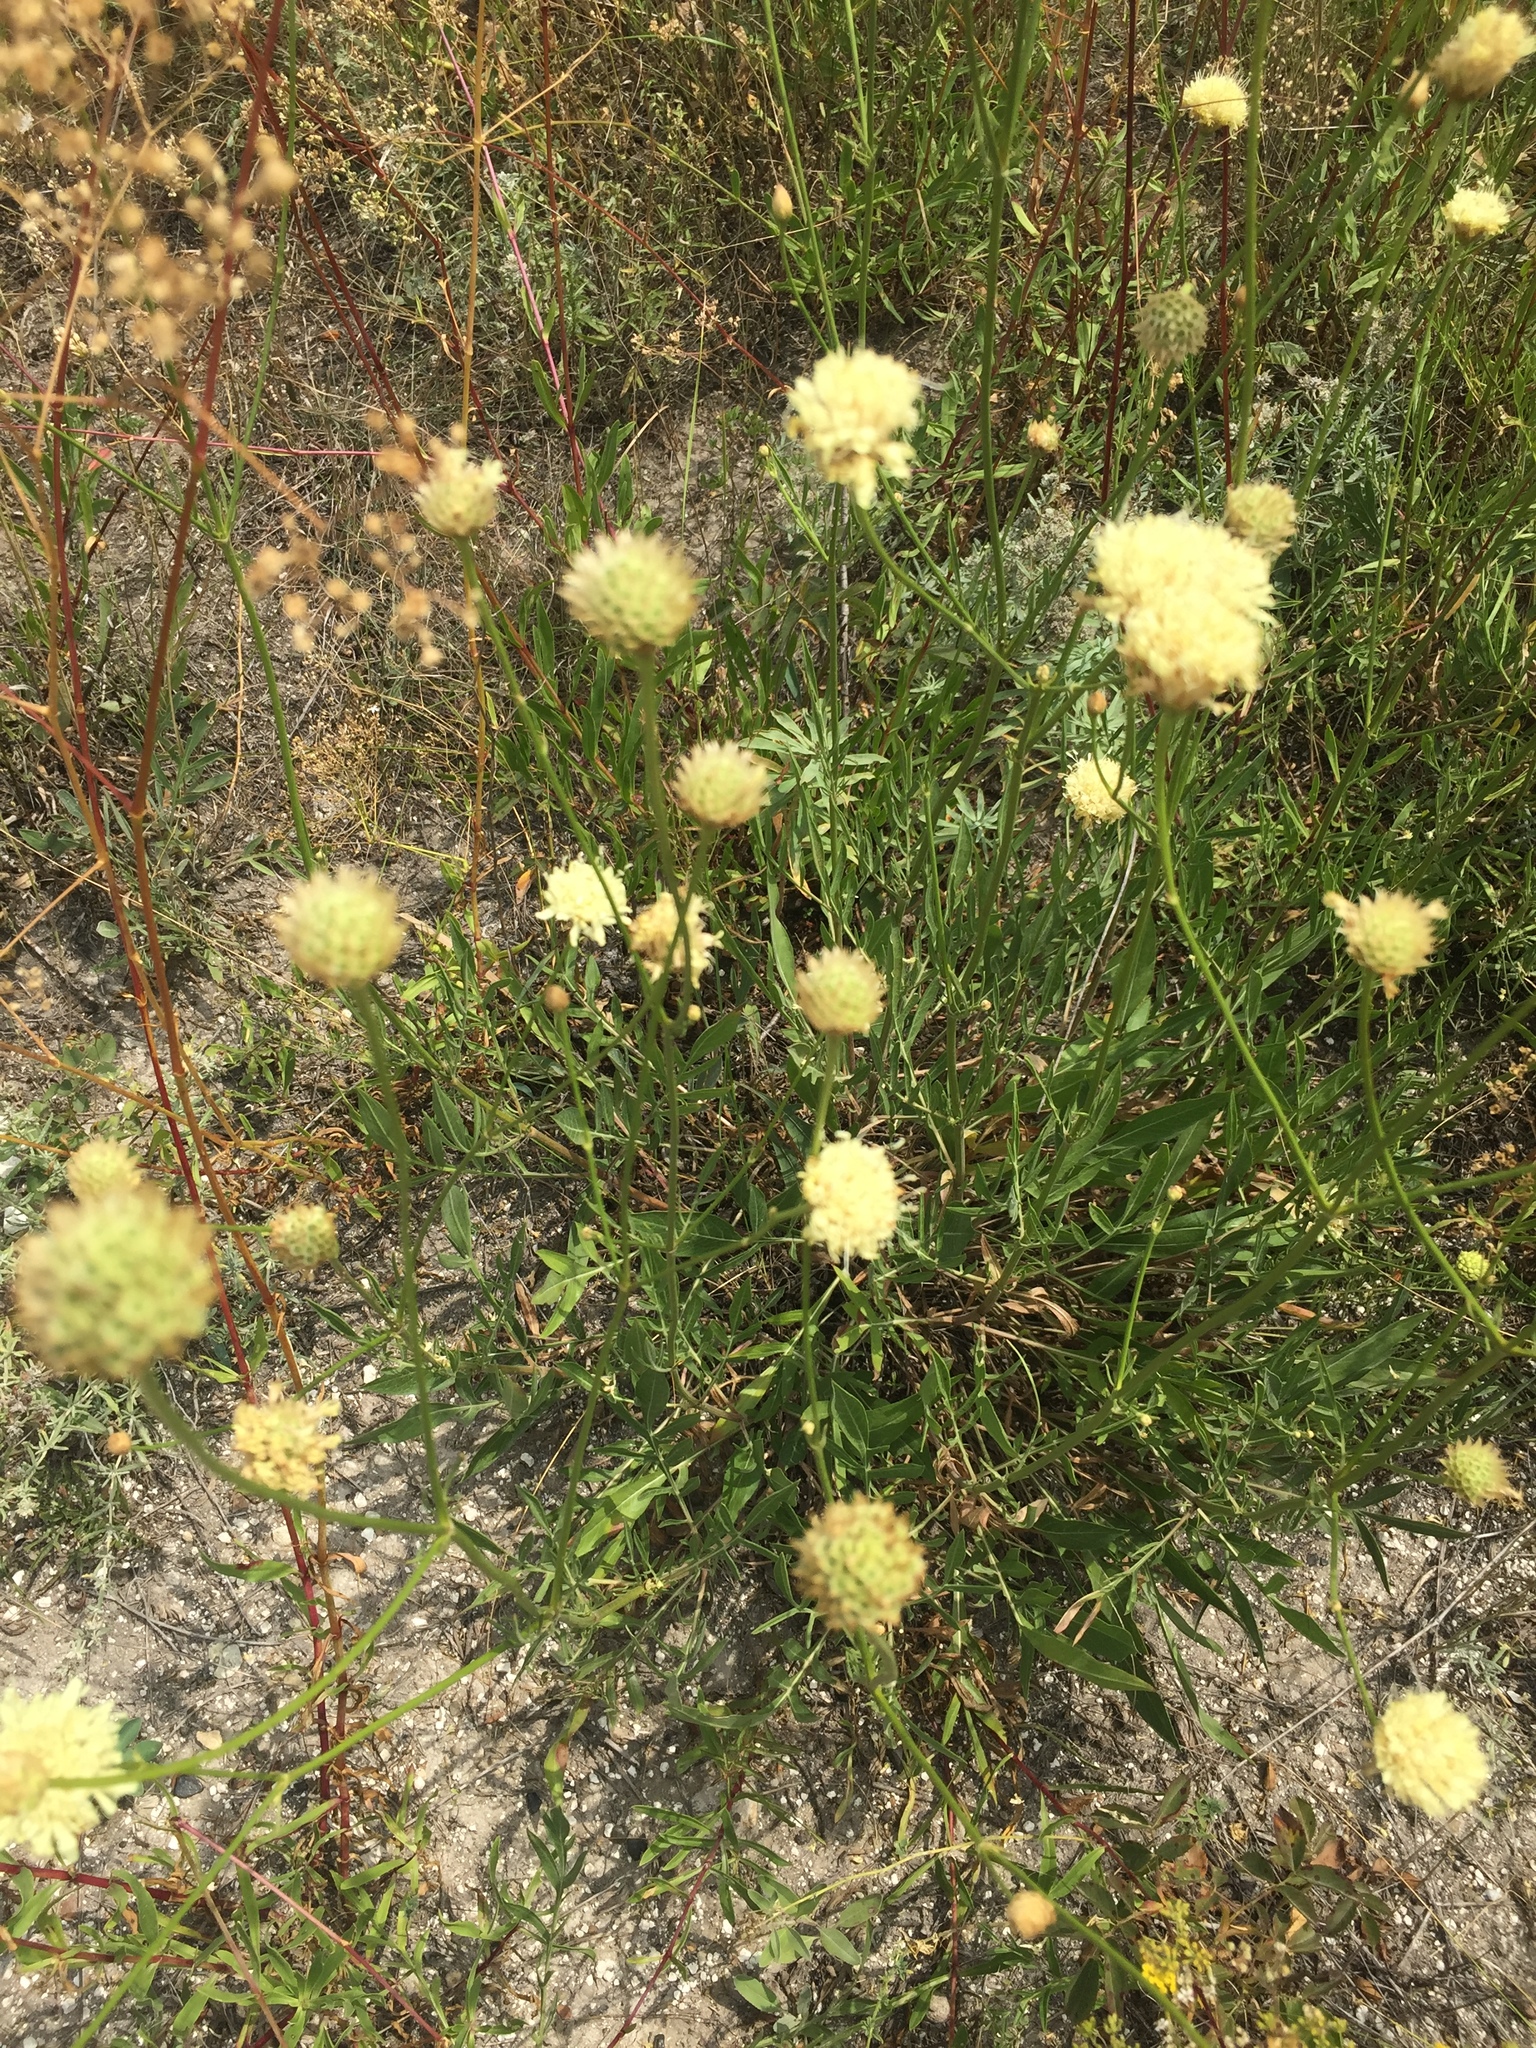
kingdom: Plantae
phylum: Tracheophyta
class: Magnoliopsida
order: Dipsacales
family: Caprifoliaceae
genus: Cephalaria
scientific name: Cephalaria uralensis
